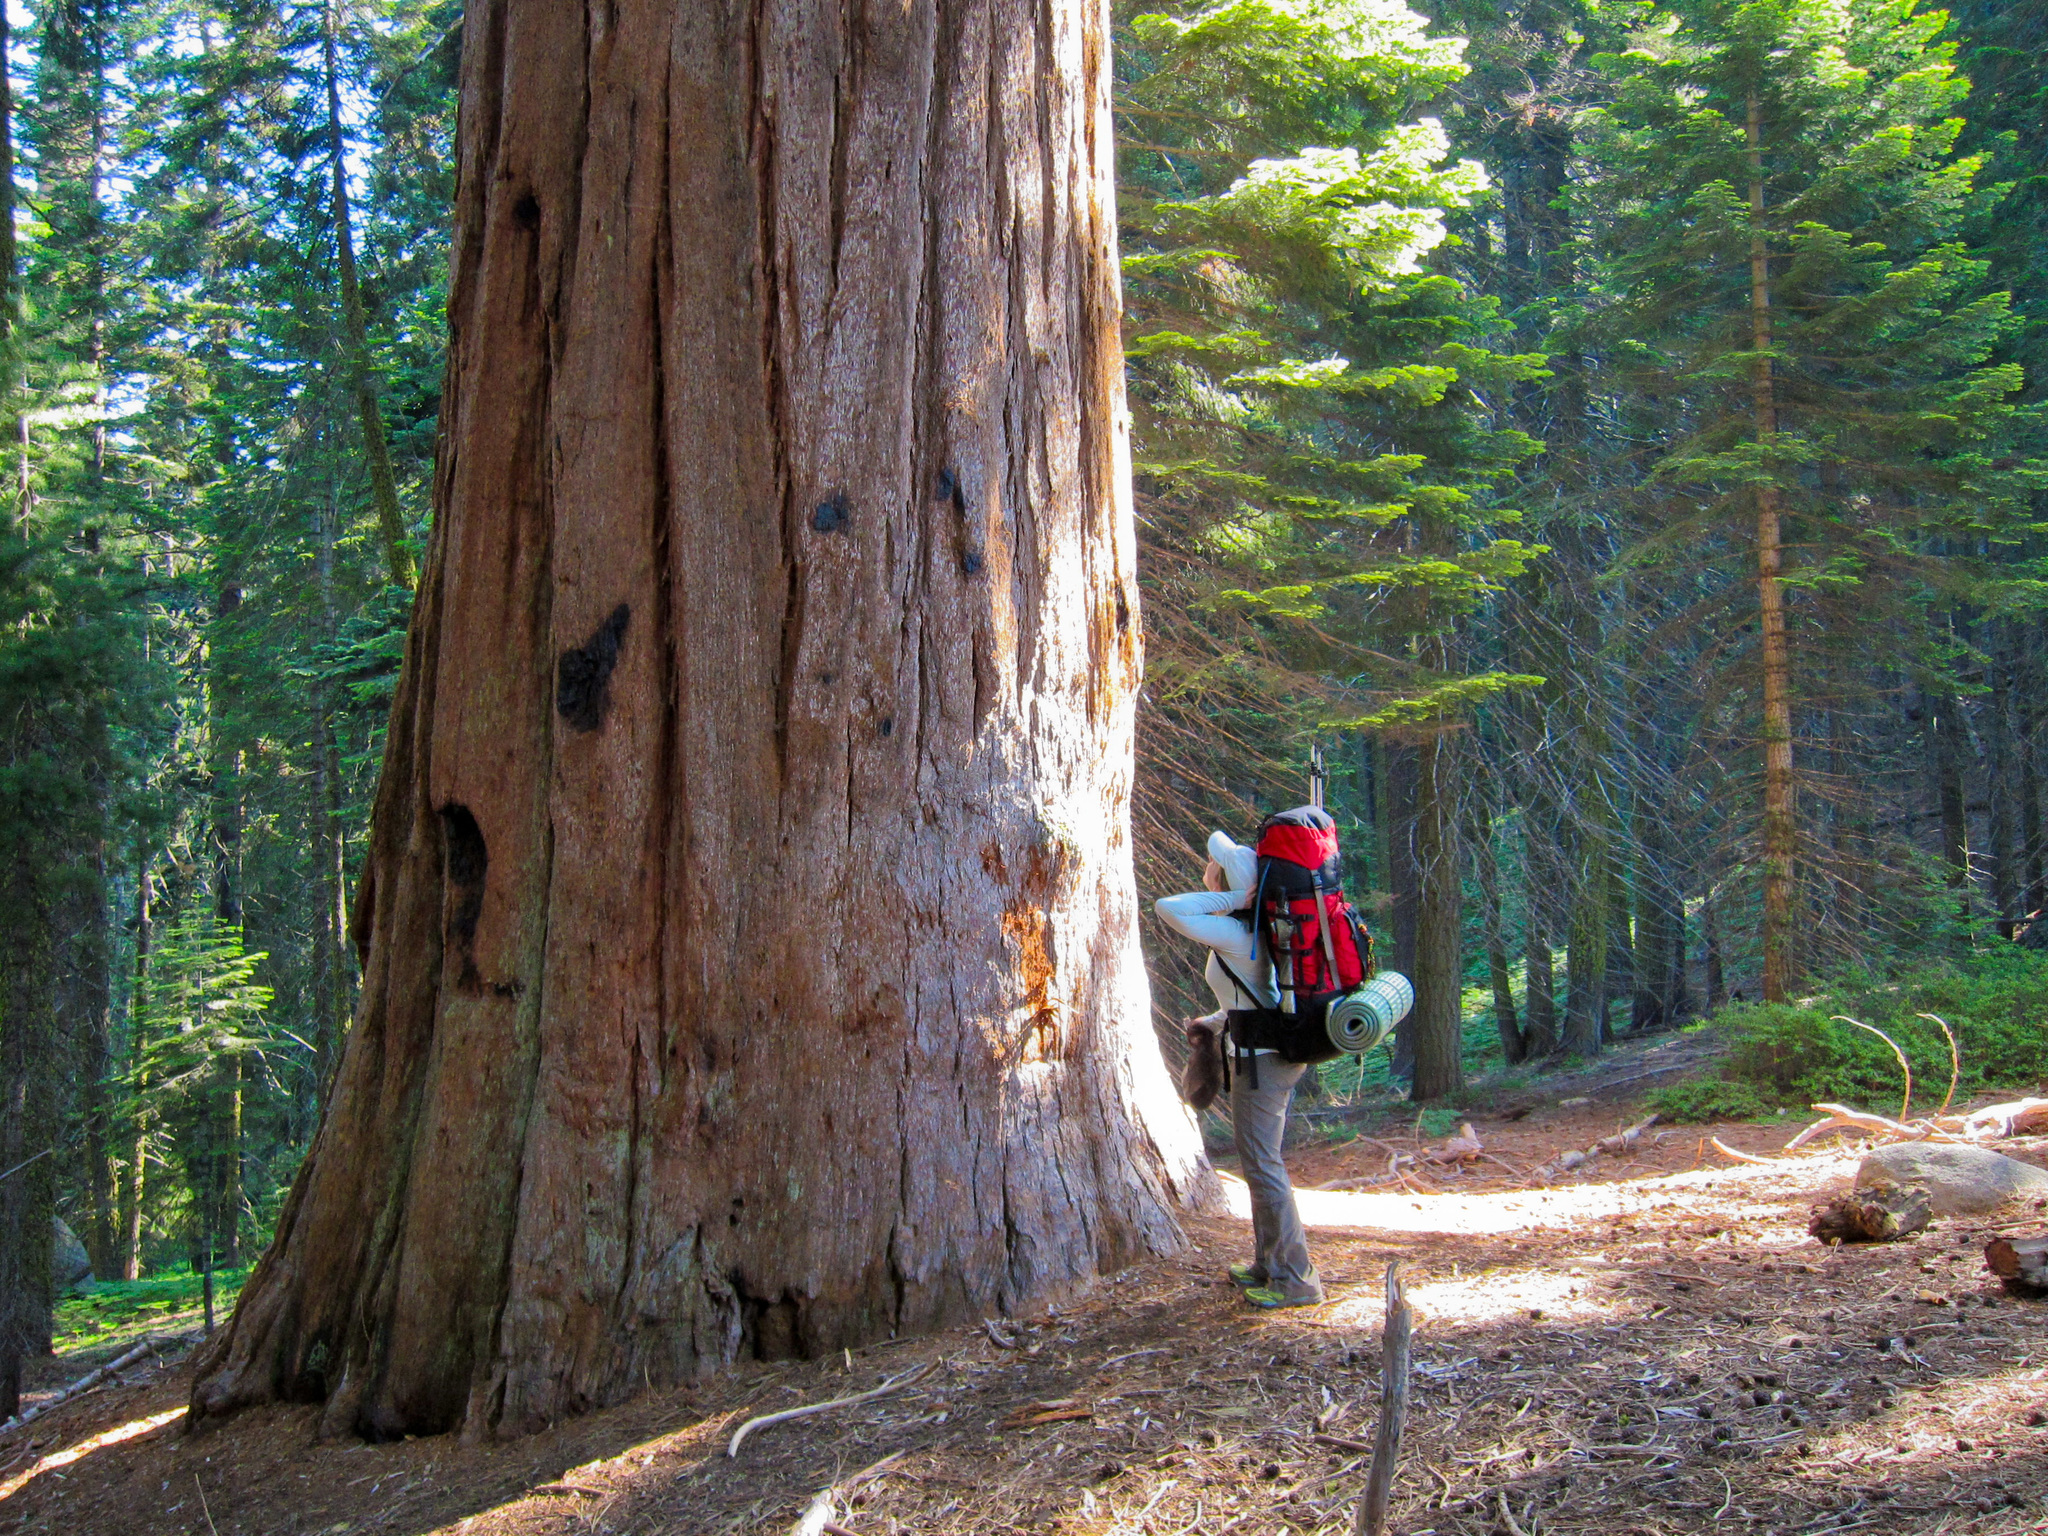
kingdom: Plantae
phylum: Tracheophyta
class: Pinopsida
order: Pinales
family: Cupressaceae
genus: Sequoiadendron
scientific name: Sequoiadendron giganteum
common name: Wellingtonia
